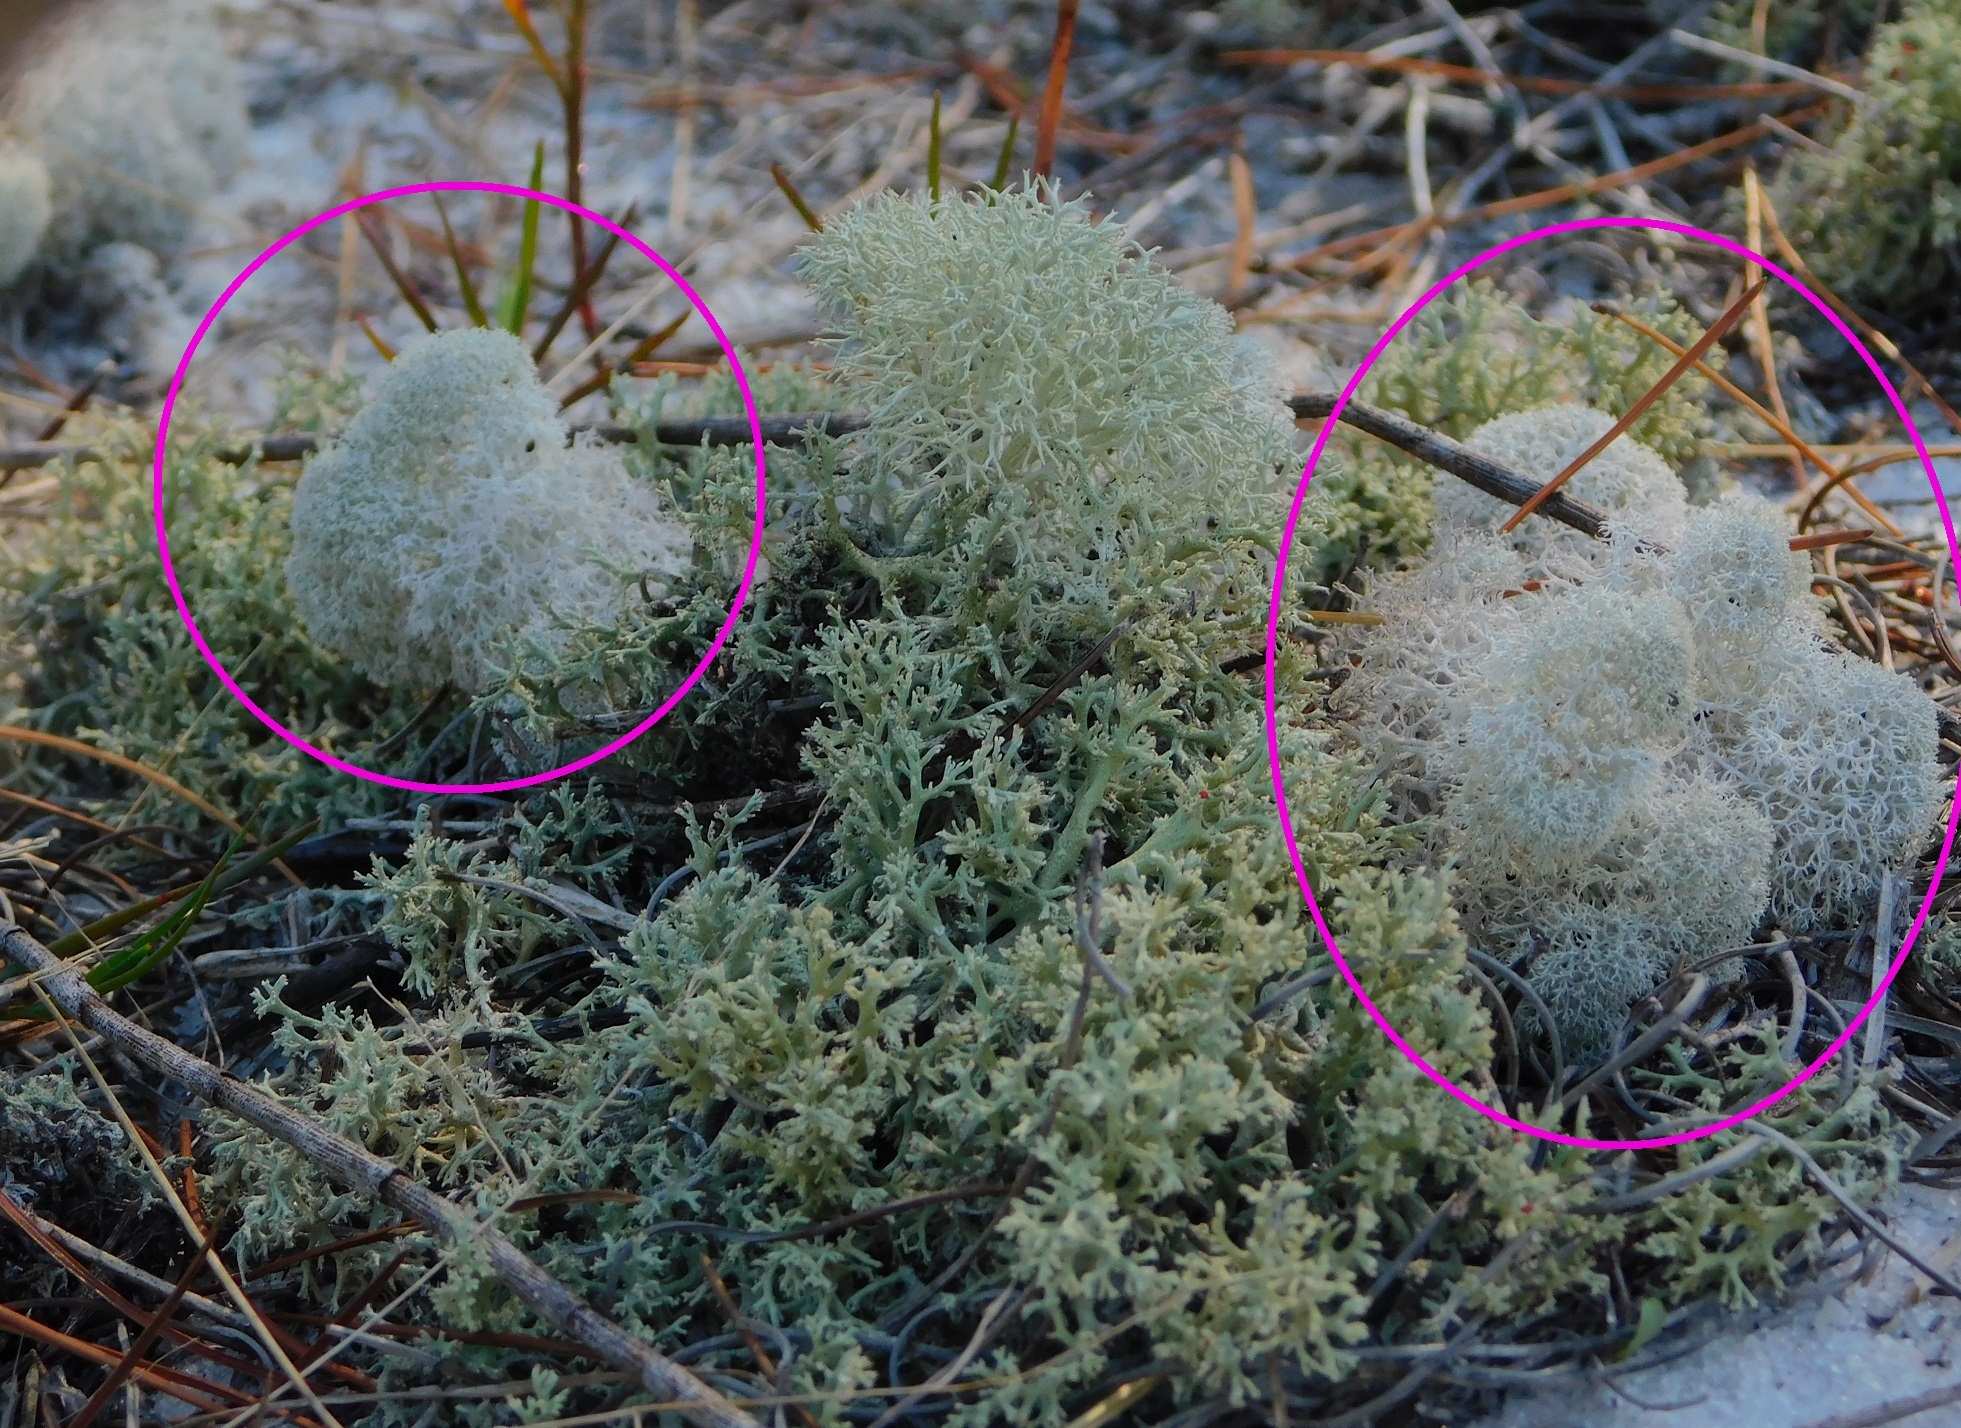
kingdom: Fungi
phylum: Ascomycota
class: Lecanoromycetes
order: Lecanorales
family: Cladoniaceae
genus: Cladonia
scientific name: Cladonia evansii
